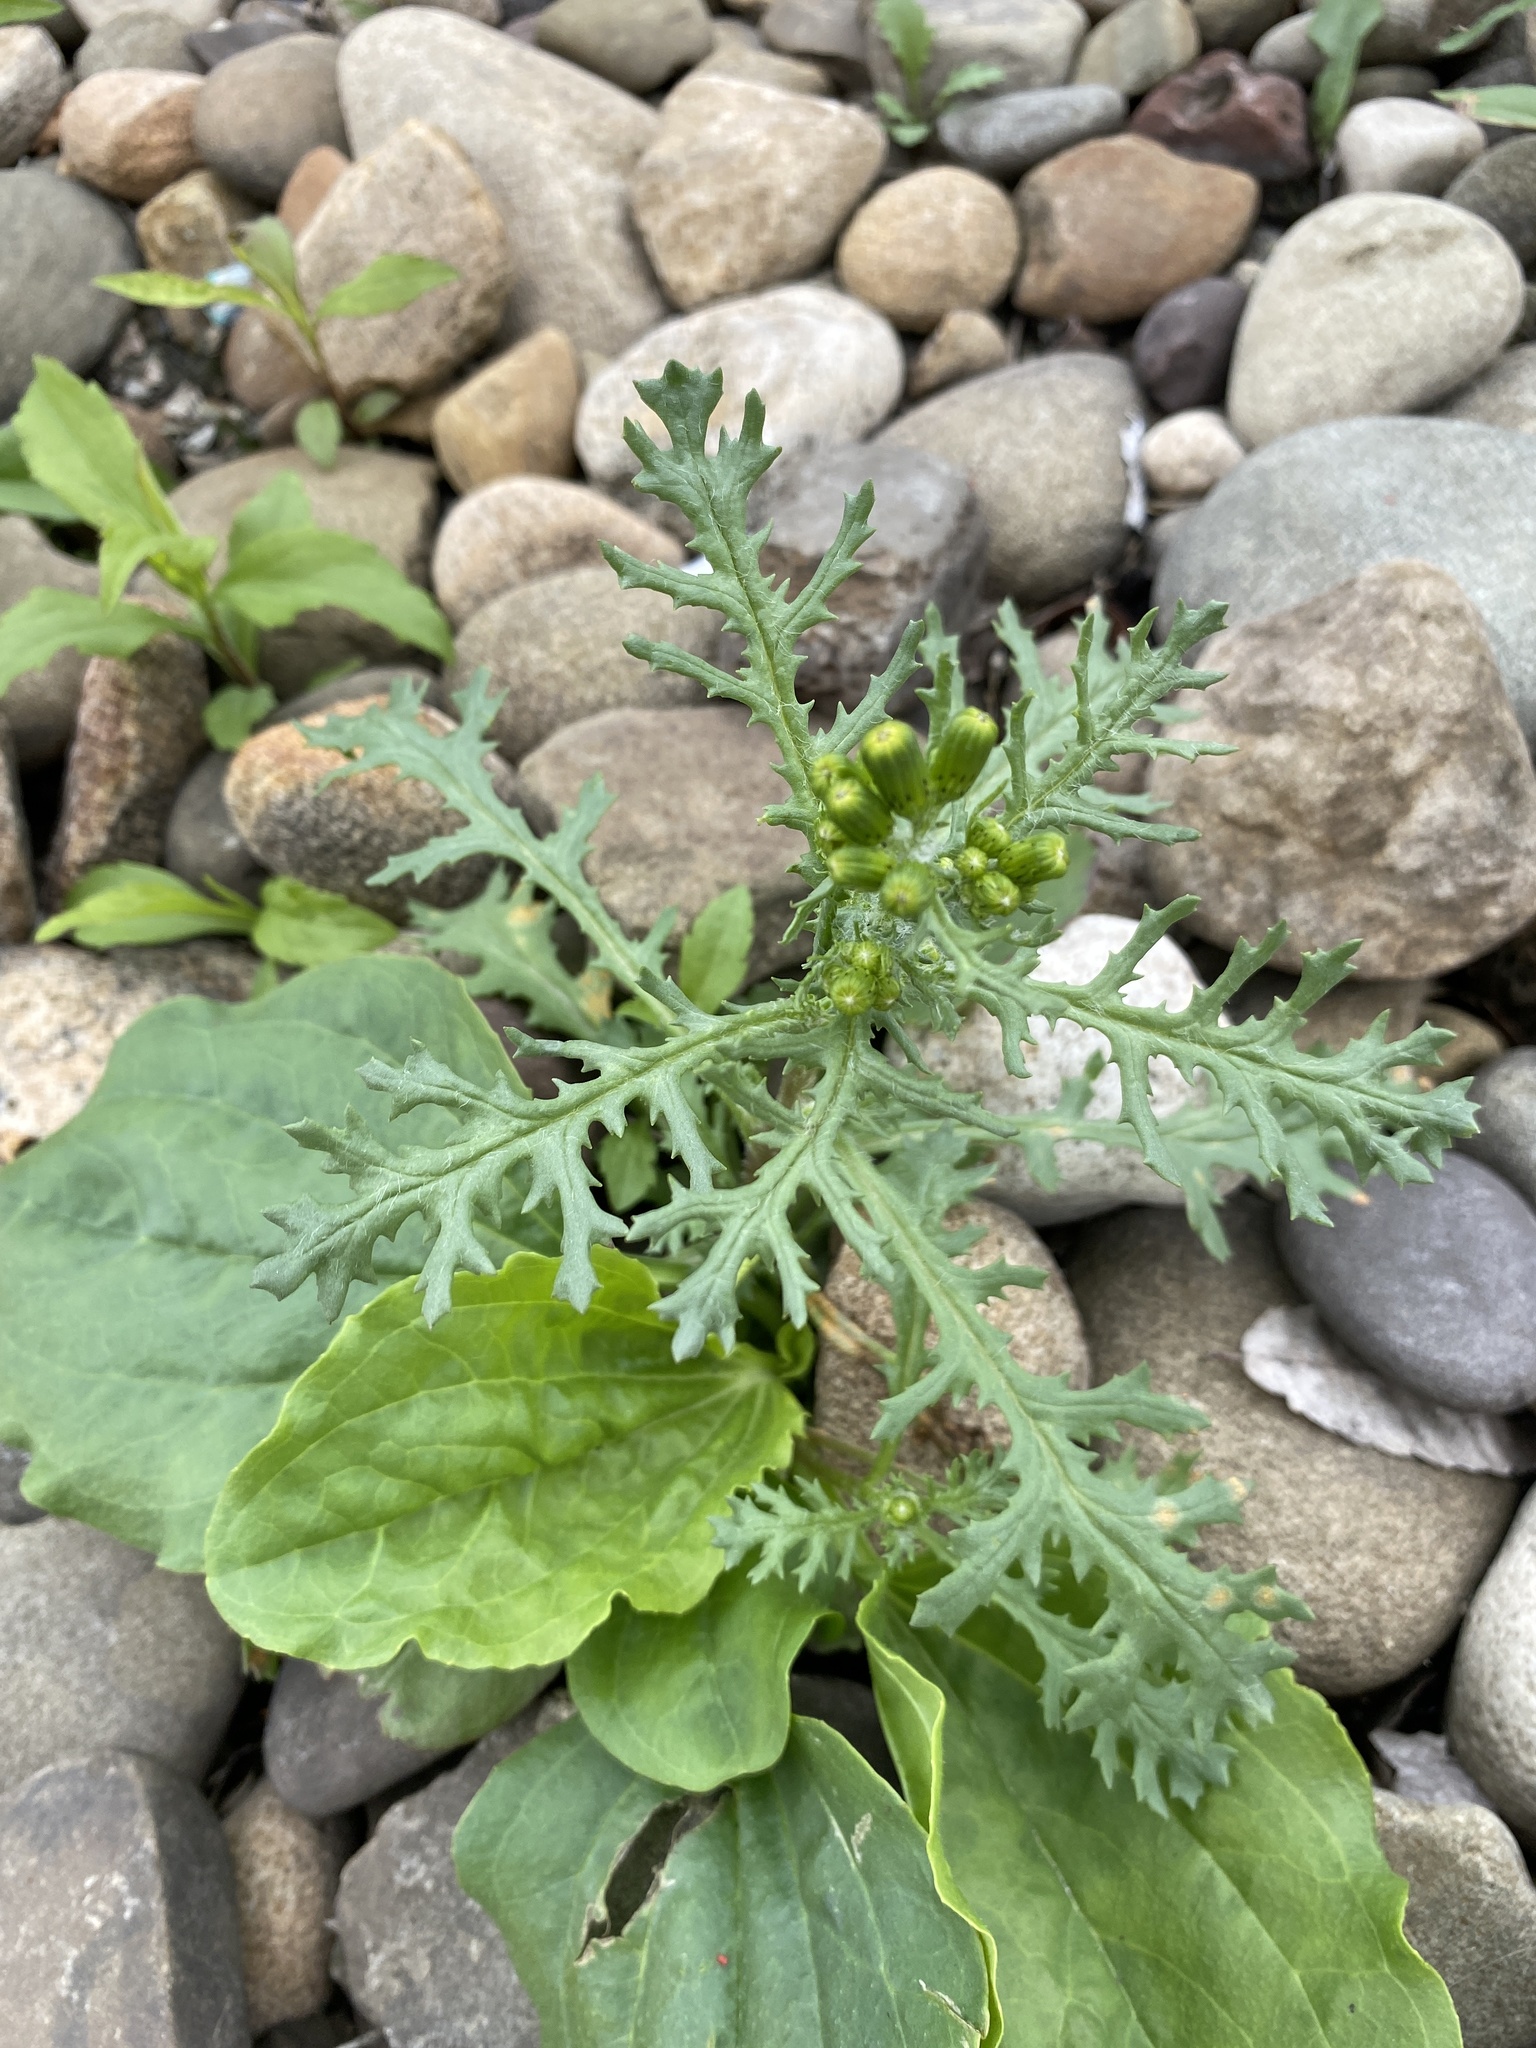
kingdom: Plantae
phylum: Tracheophyta
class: Magnoliopsida
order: Asterales
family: Asteraceae
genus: Senecio
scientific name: Senecio vulgaris
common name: Old-man-in-the-spring
